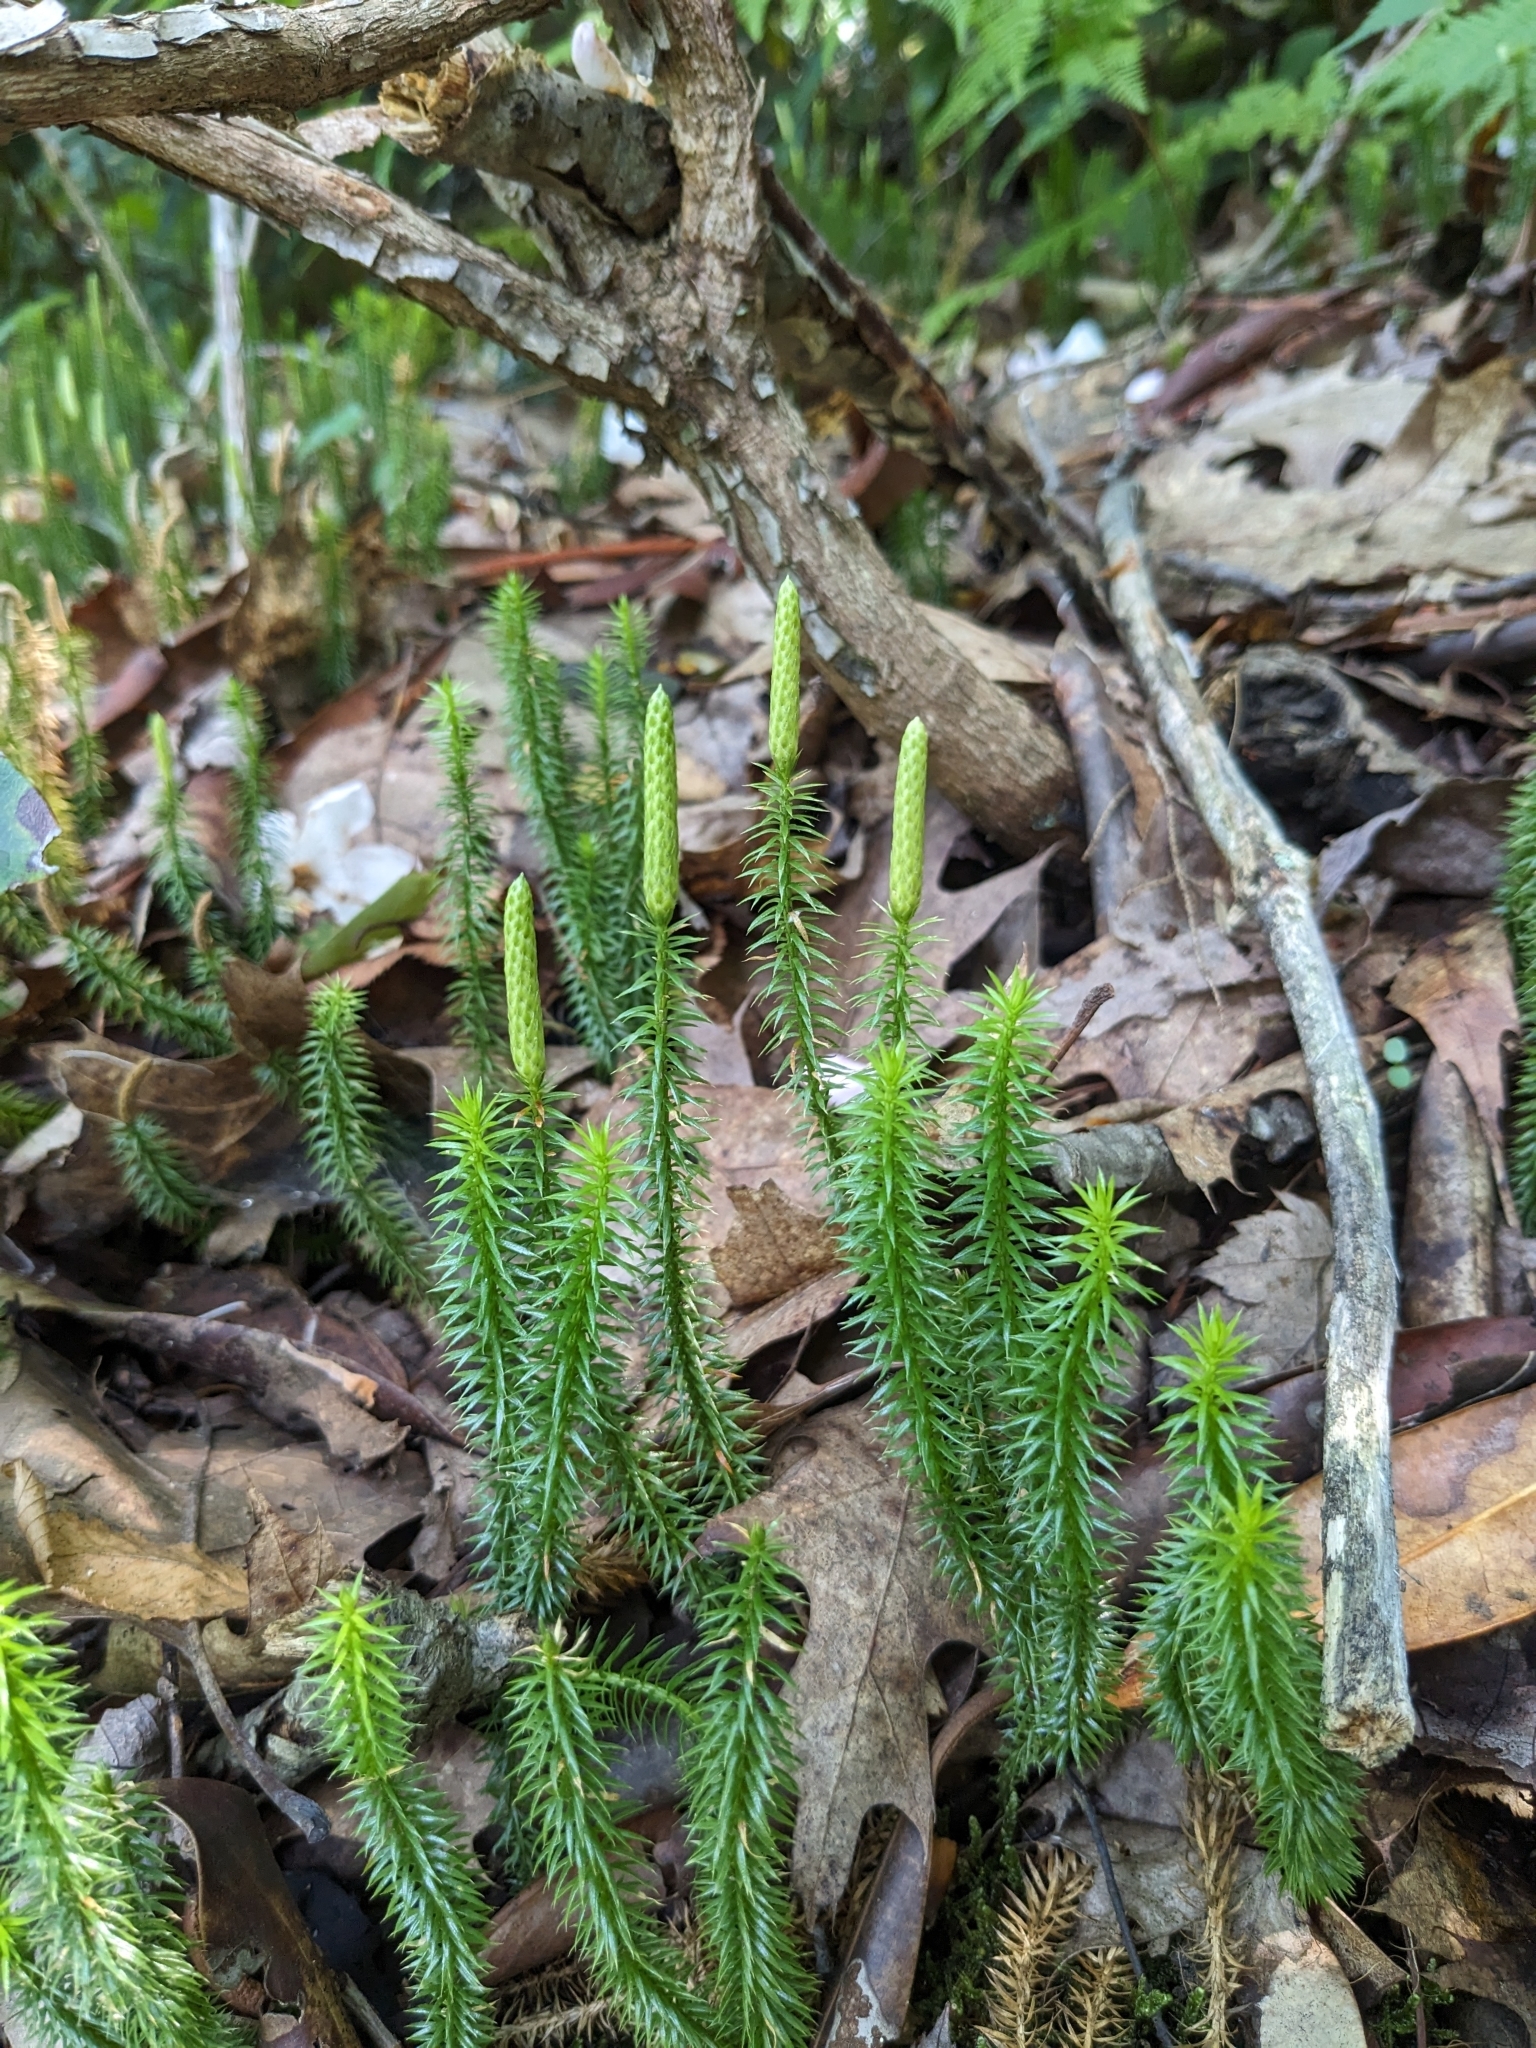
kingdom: Plantae
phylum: Tracheophyta
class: Lycopodiopsida
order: Lycopodiales
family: Lycopodiaceae
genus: Spinulum
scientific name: Spinulum annotinum
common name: Interrupted club-moss
